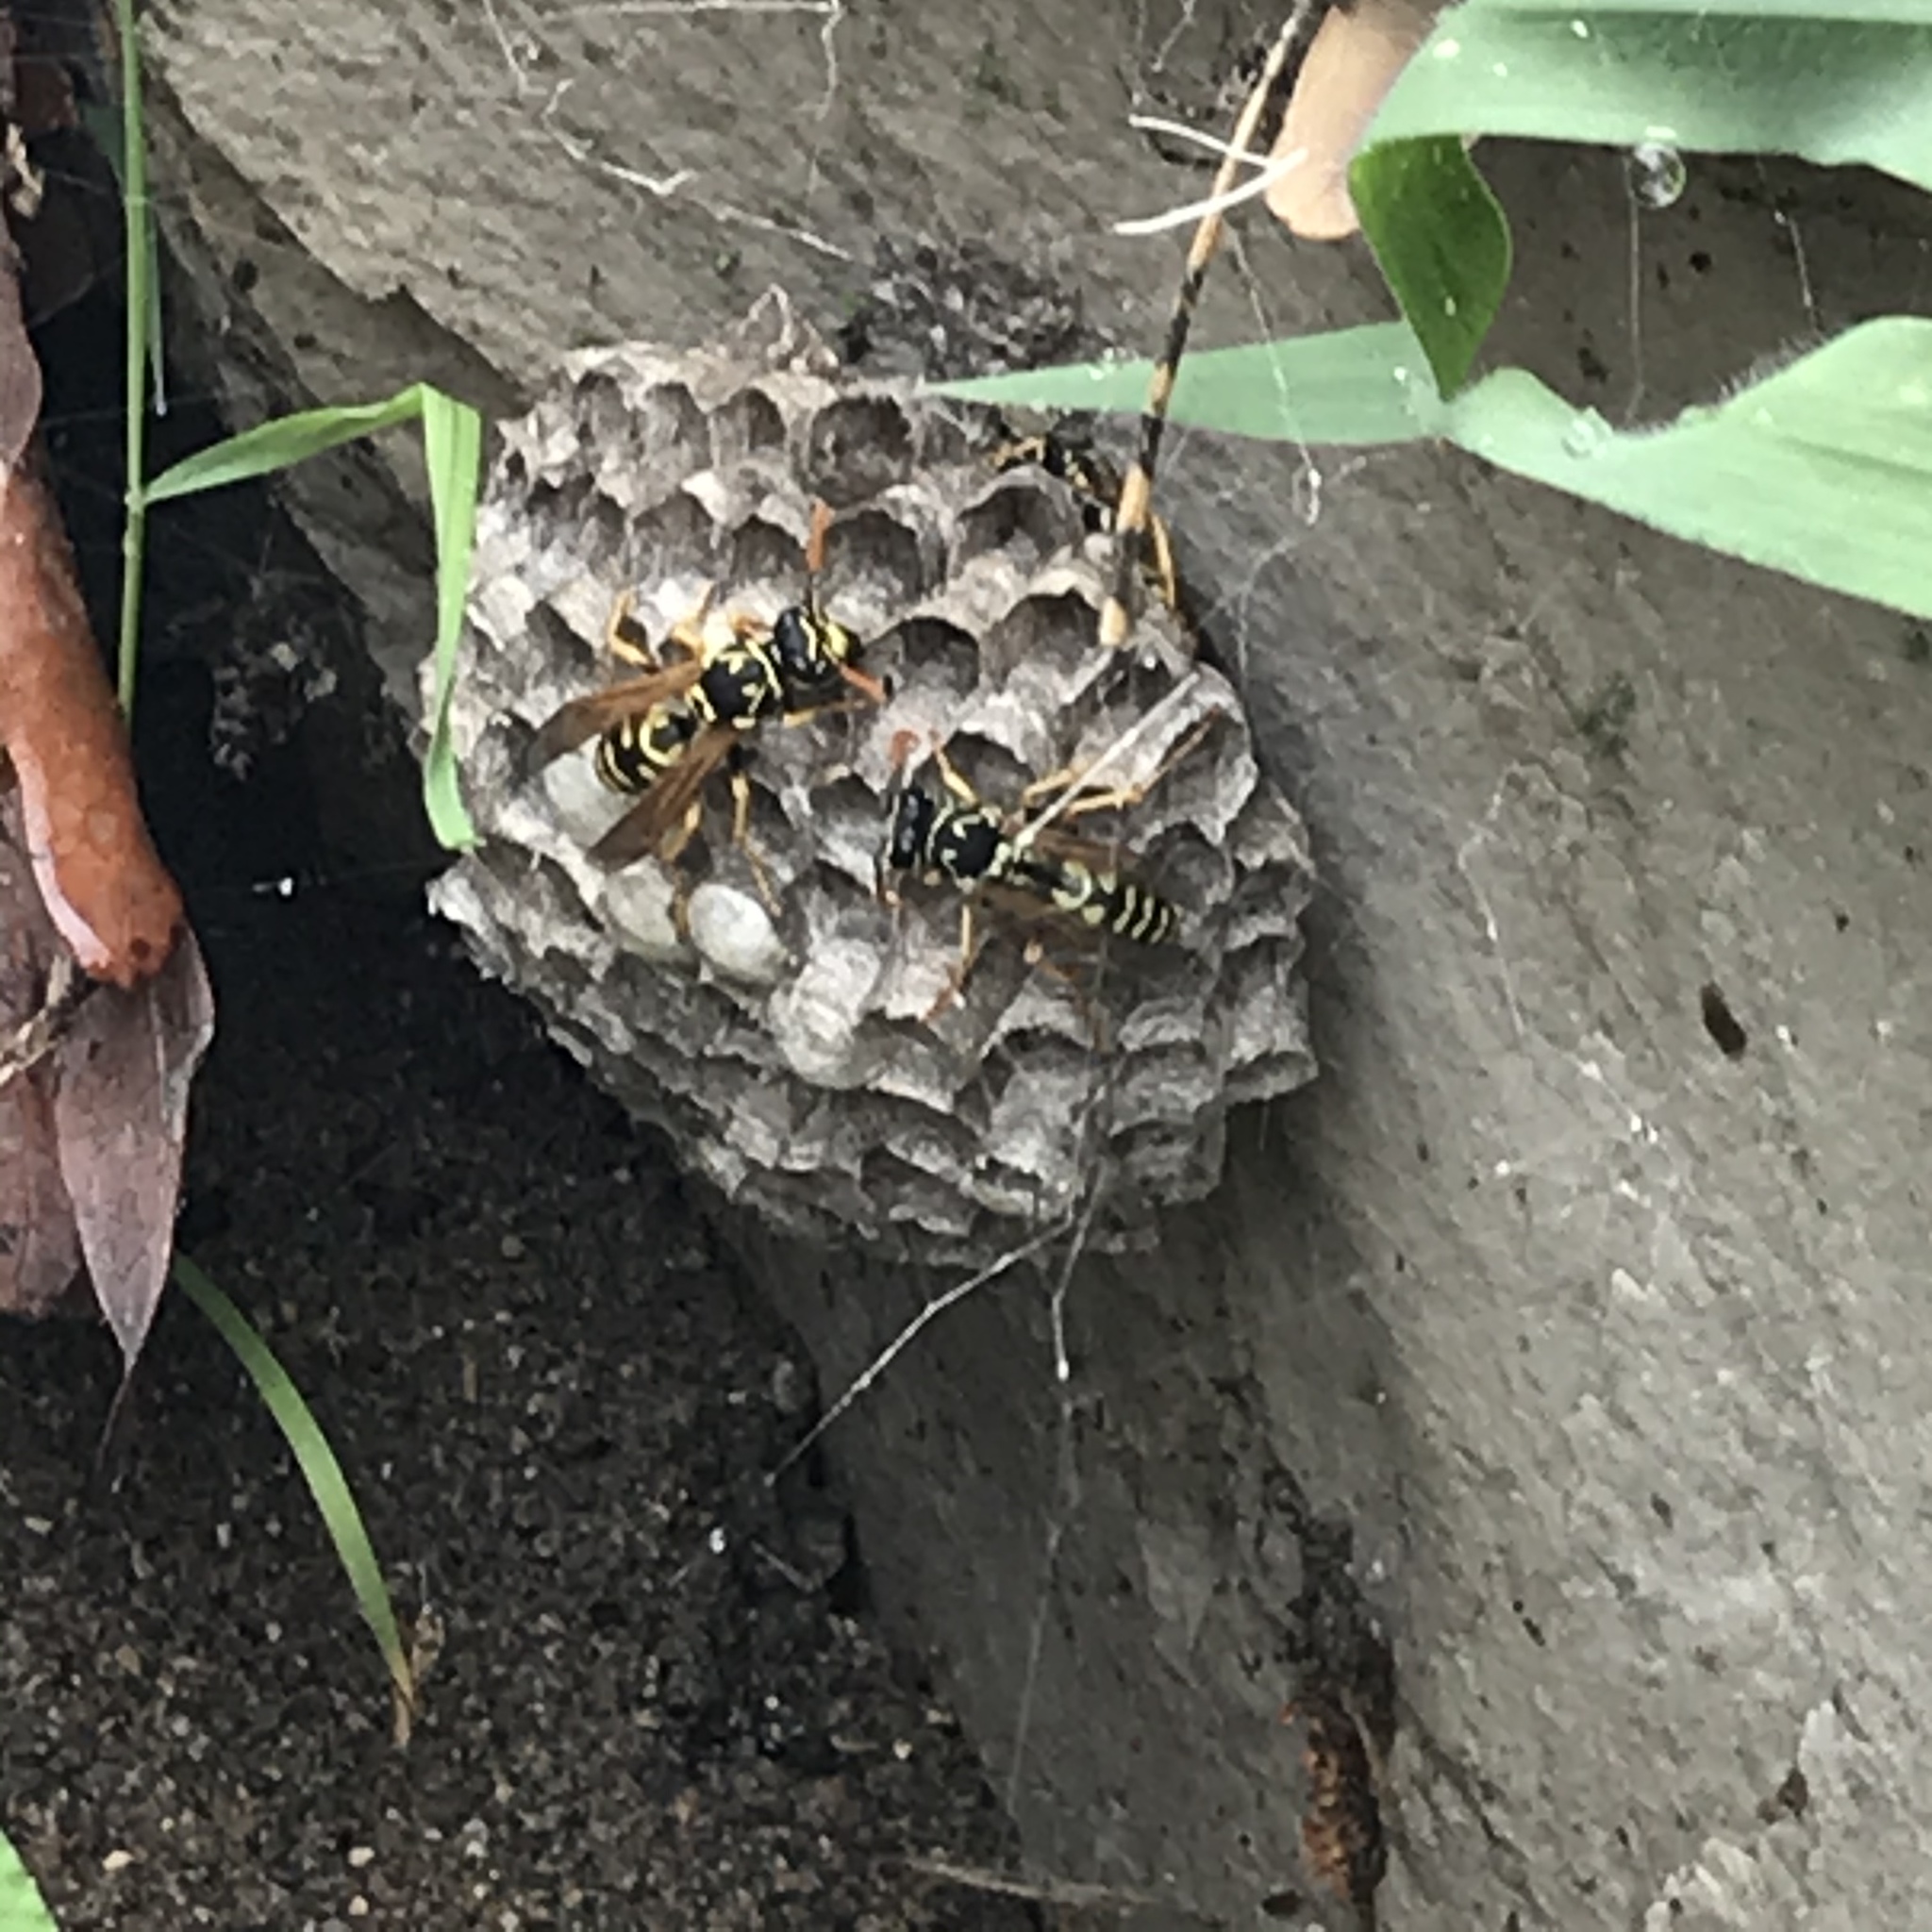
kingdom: Animalia
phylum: Arthropoda
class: Insecta
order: Hymenoptera
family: Eumenidae
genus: Polistes
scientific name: Polistes dominula
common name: Paper wasp
